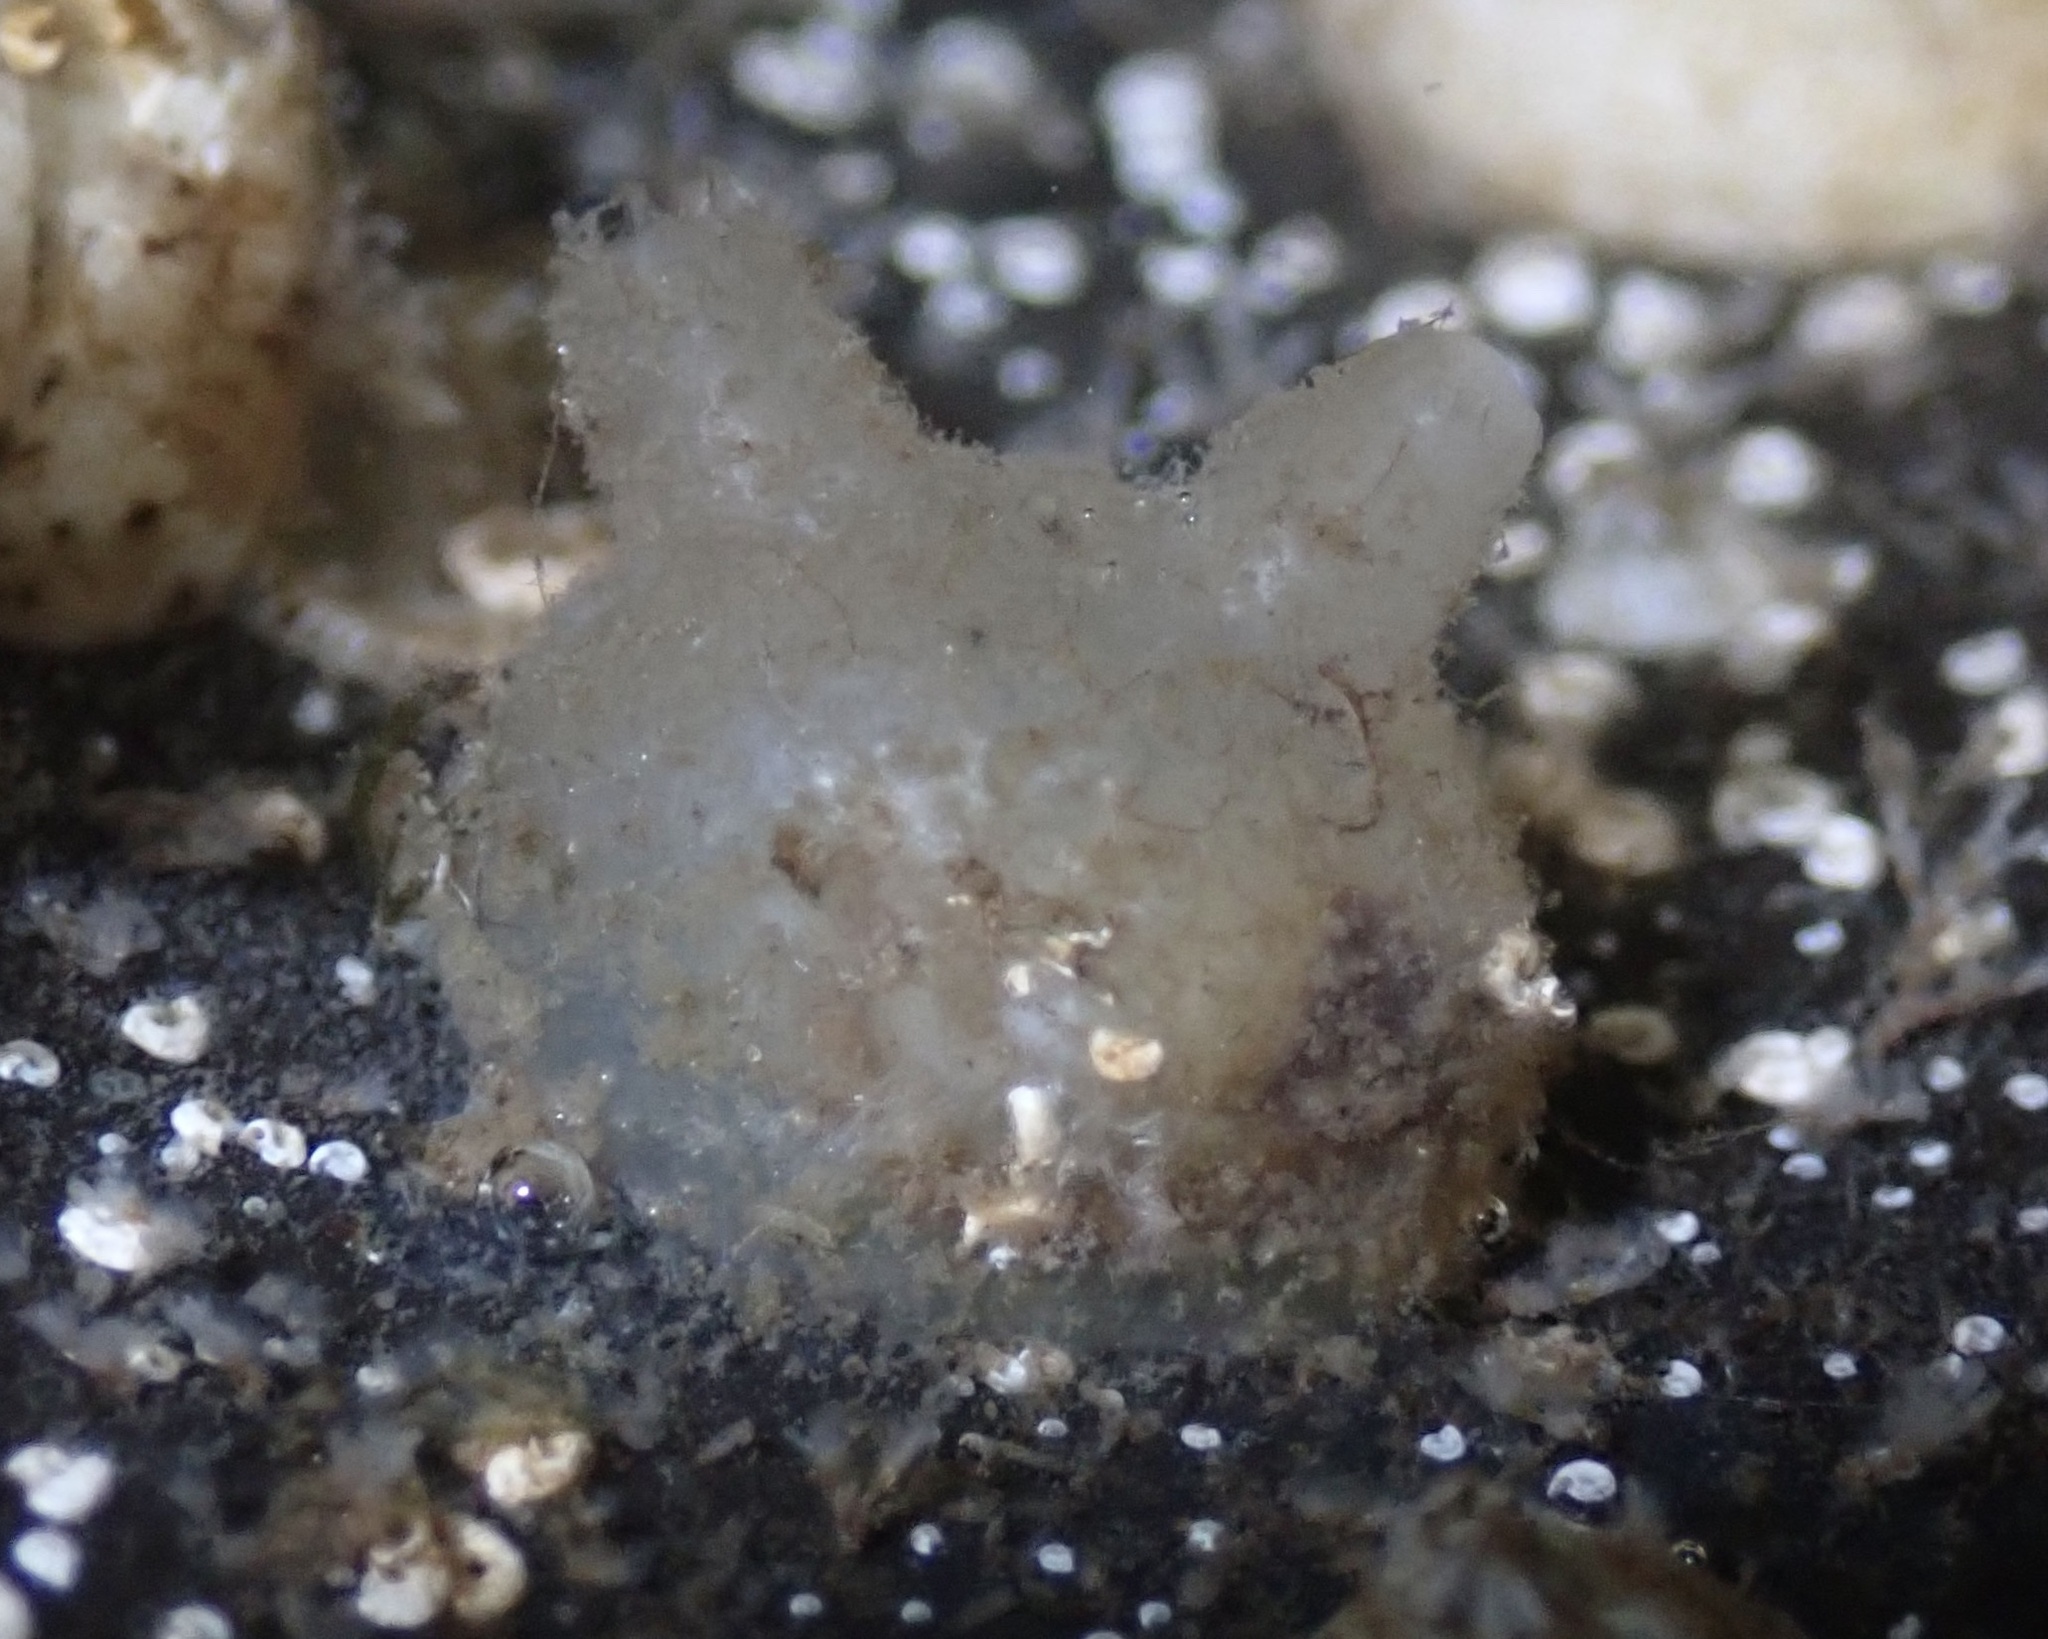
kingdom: Animalia
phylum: Chordata
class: Ascidiacea
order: Stolidobranchia
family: Molgulidae
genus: Molgula
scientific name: Molgula manhattensis
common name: Molgula
